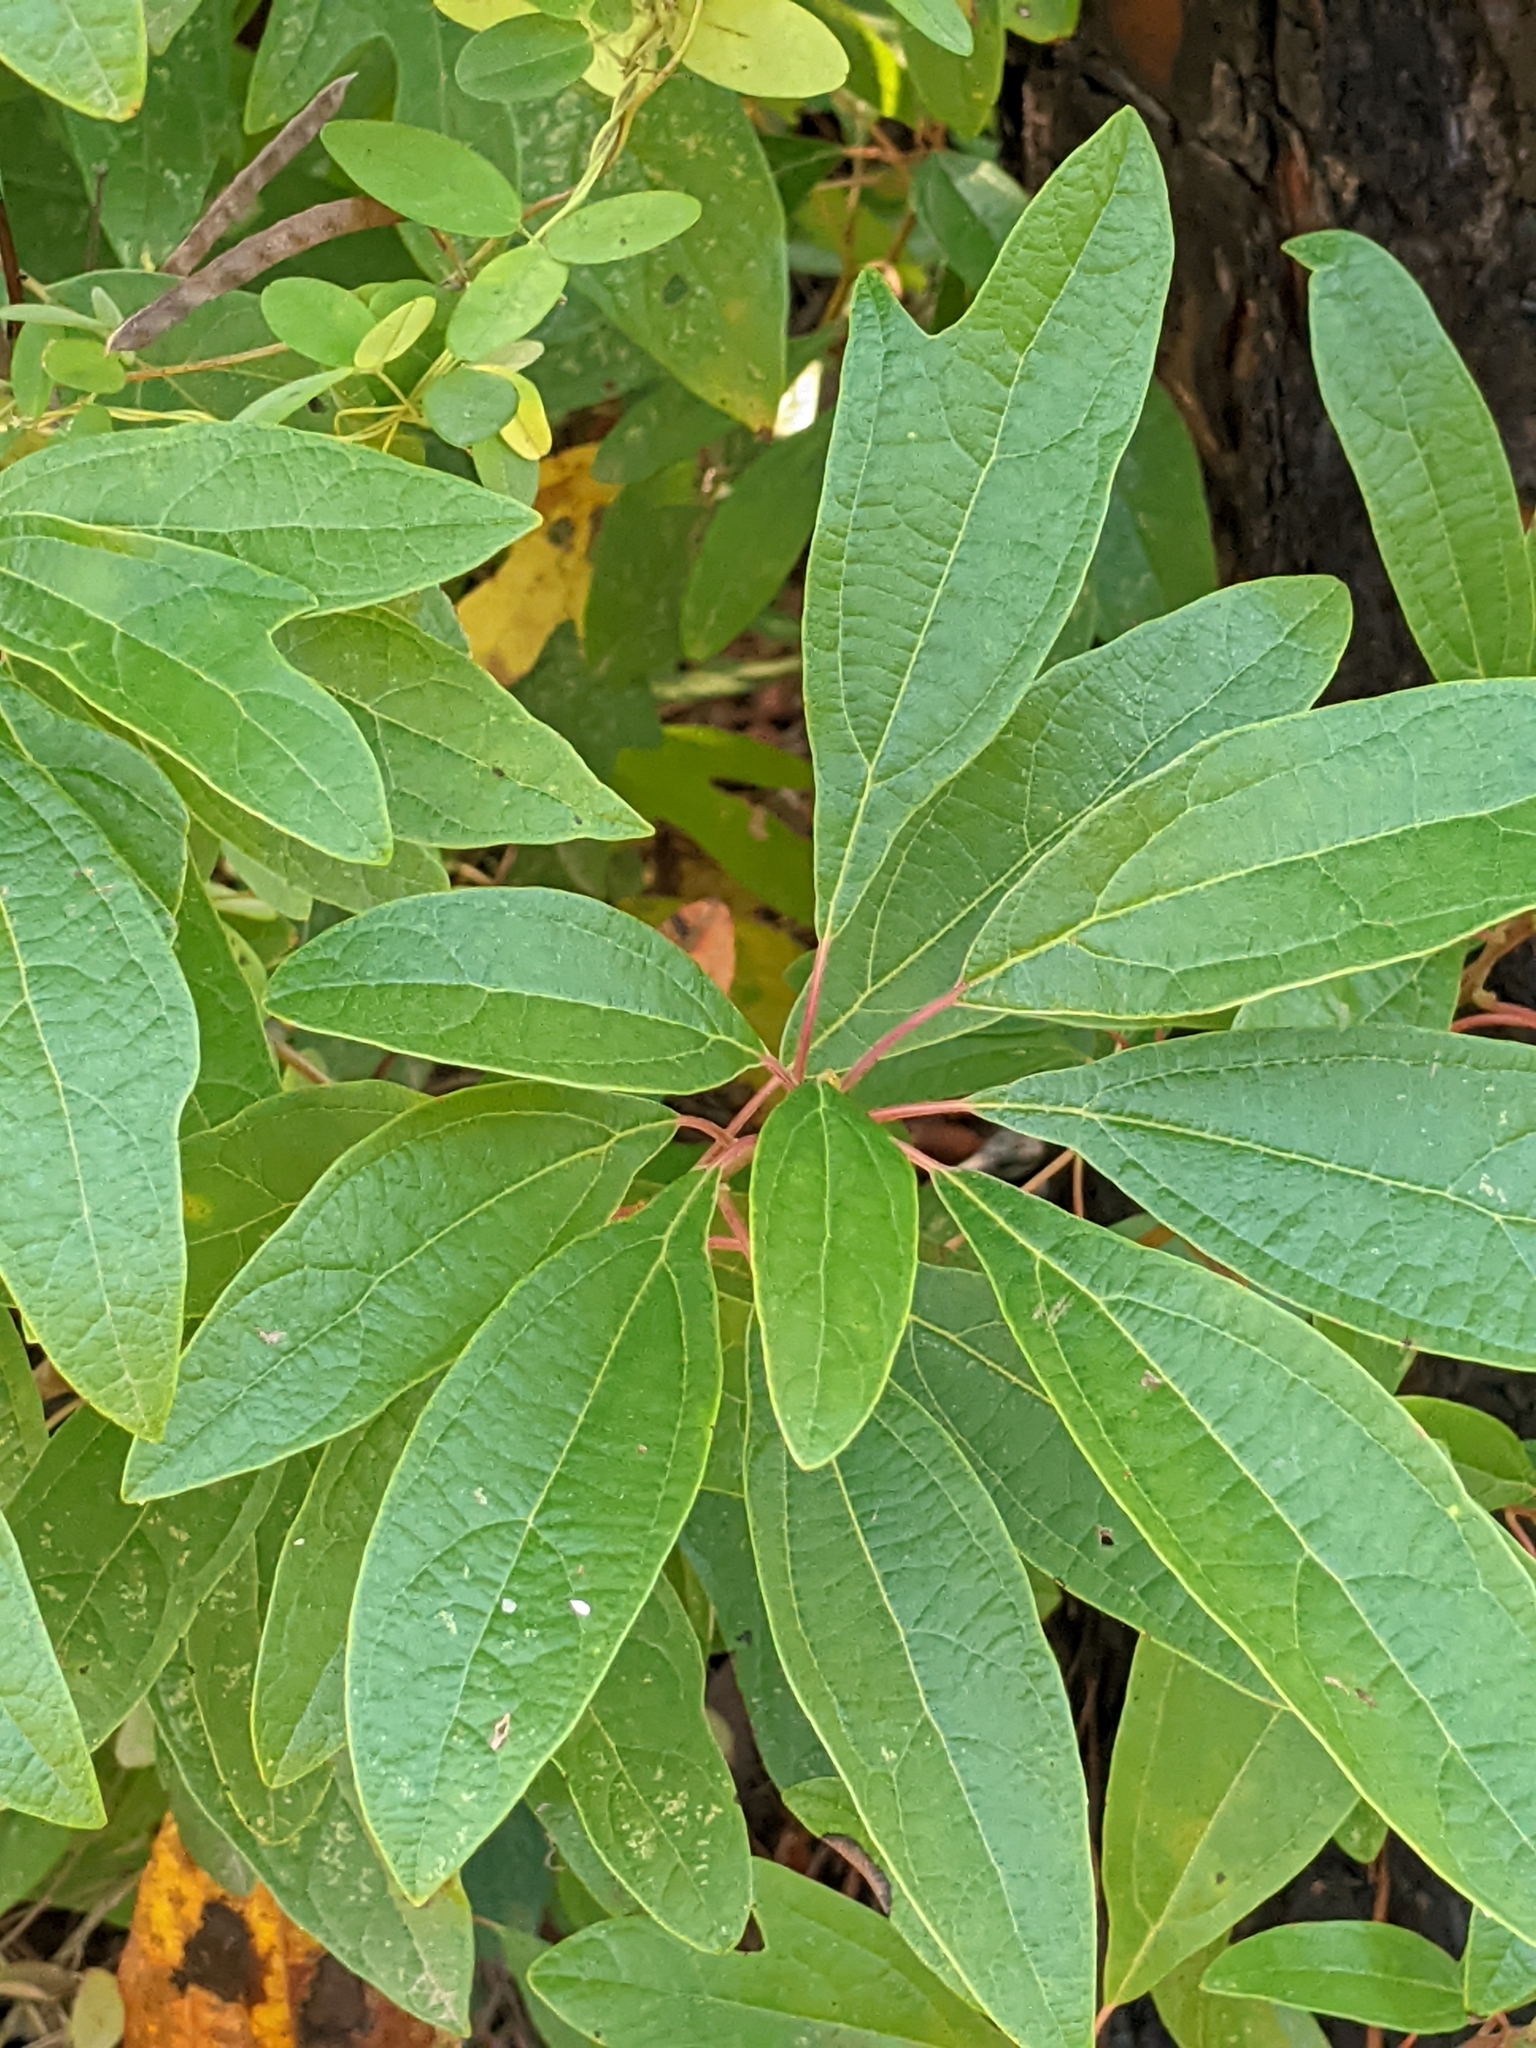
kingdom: Plantae
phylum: Tracheophyta
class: Magnoliopsida
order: Laurales
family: Lauraceae
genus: Sassafras
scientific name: Sassafras albidum
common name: Sassafras
